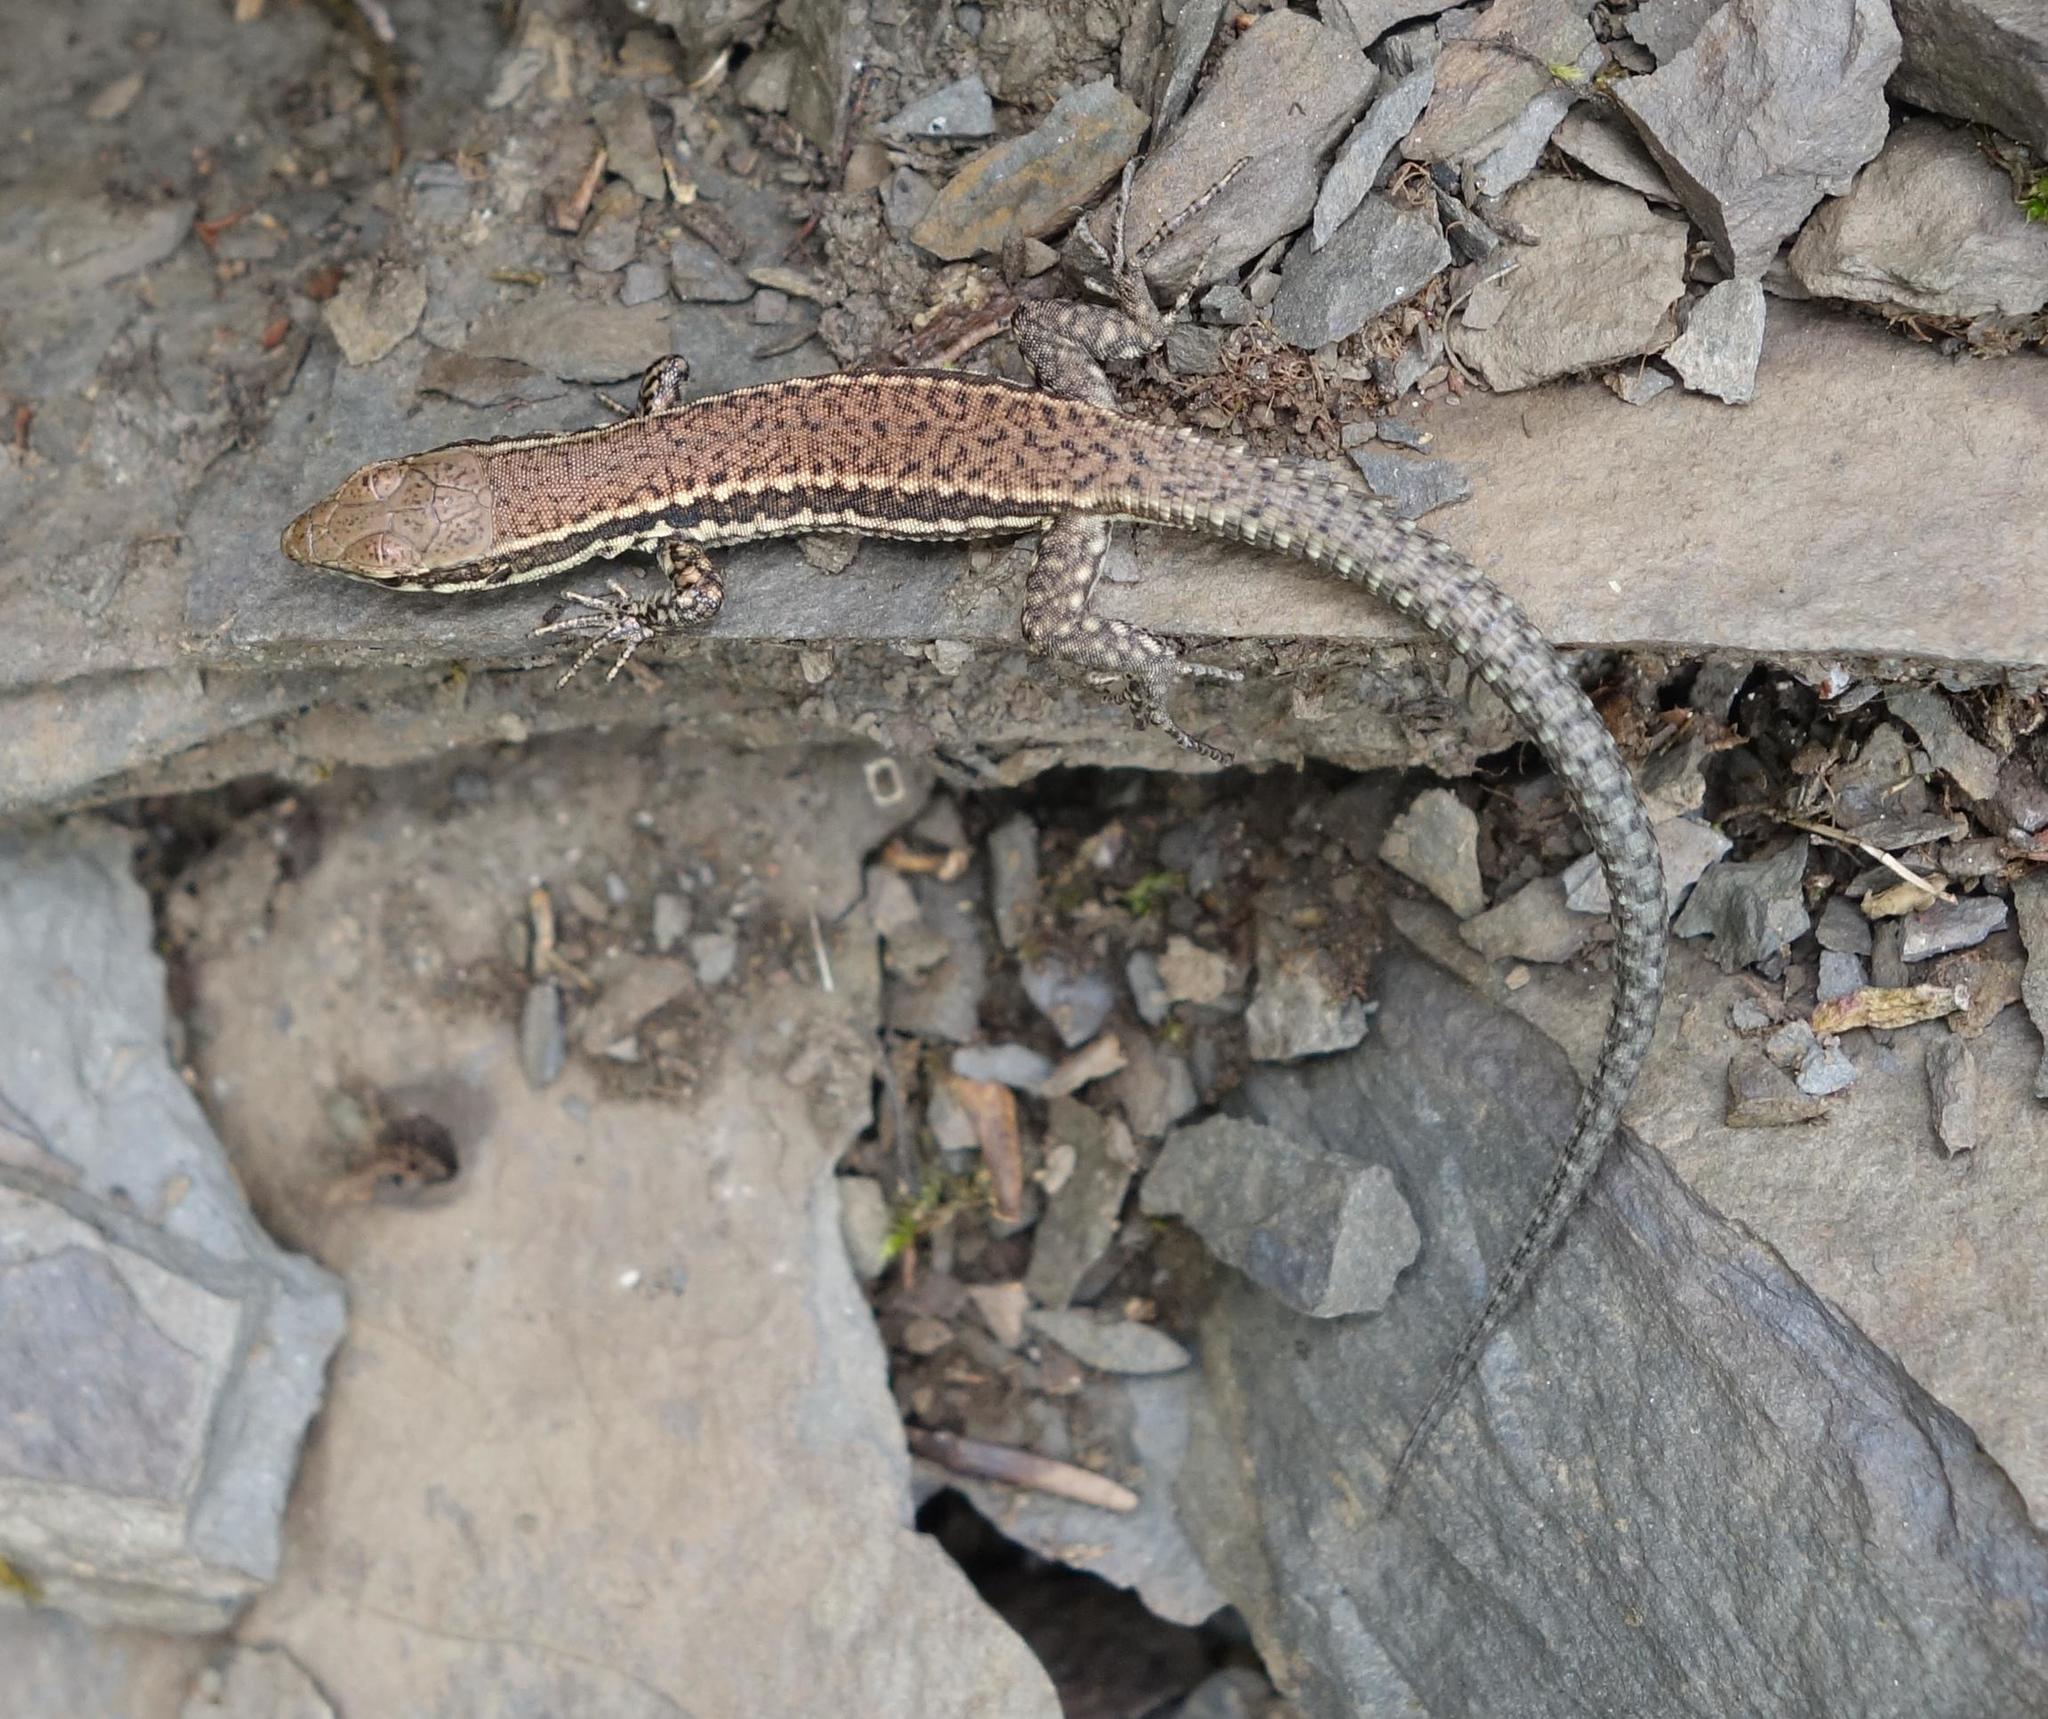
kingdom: Animalia
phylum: Chordata
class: Squamata
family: Lacertidae
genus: Podarcis
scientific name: Podarcis muralis
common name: Common wall lizard
